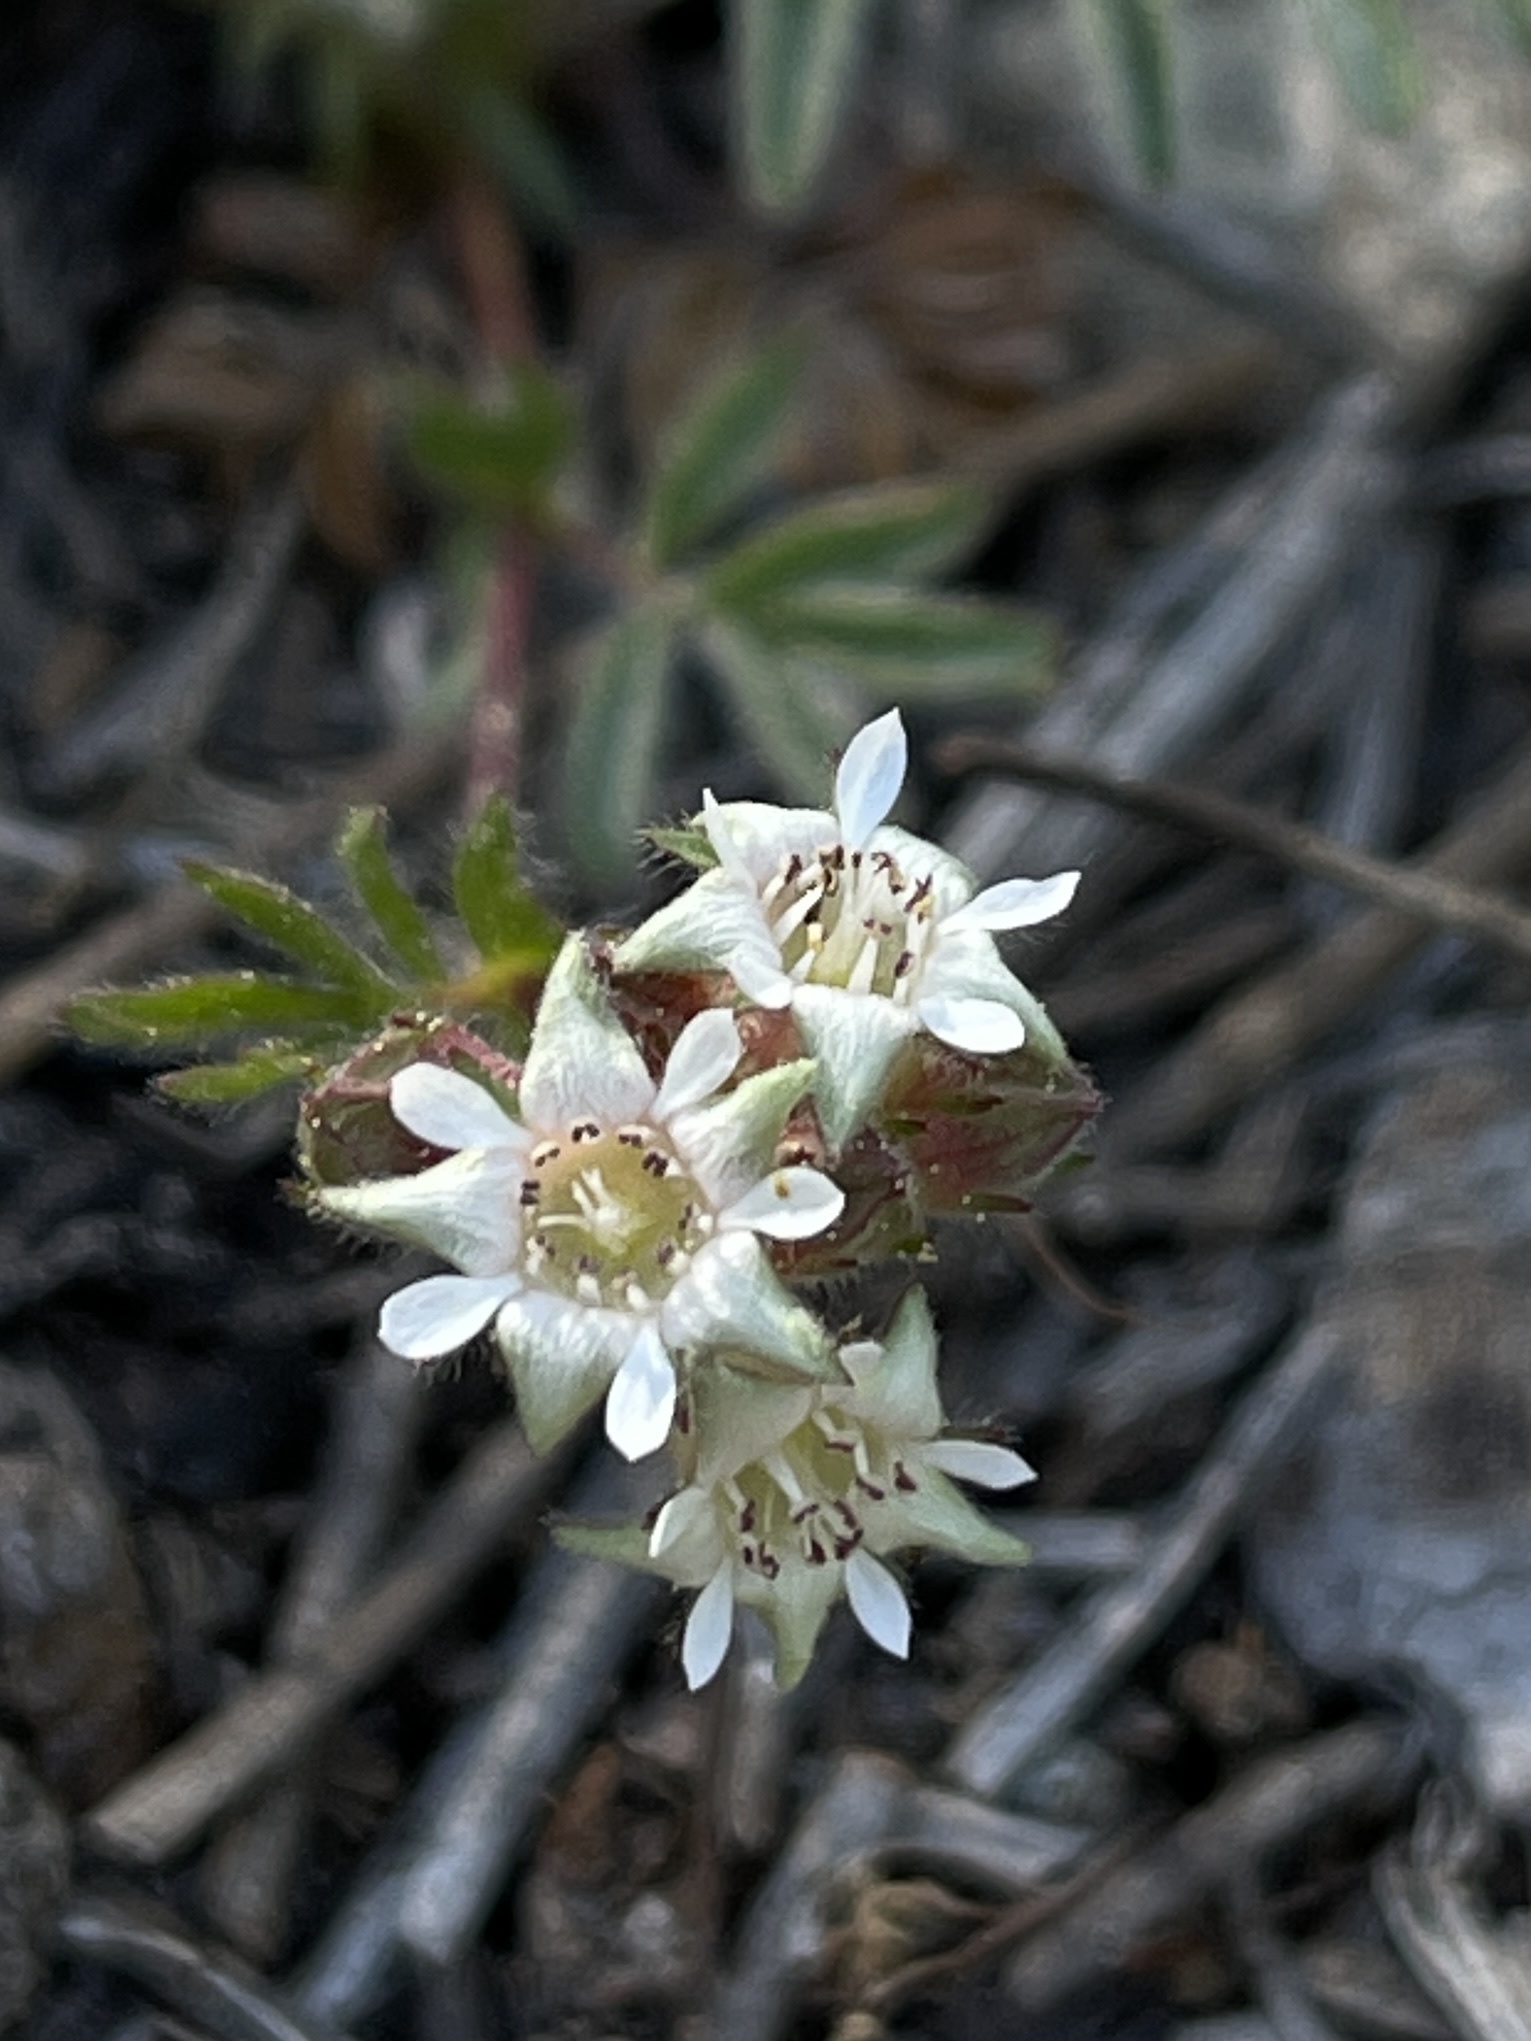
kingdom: Plantae
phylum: Tracheophyta
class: Magnoliopsida
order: Rosales
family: Rosaceae
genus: Potentilla
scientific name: Potentilla tilingii
